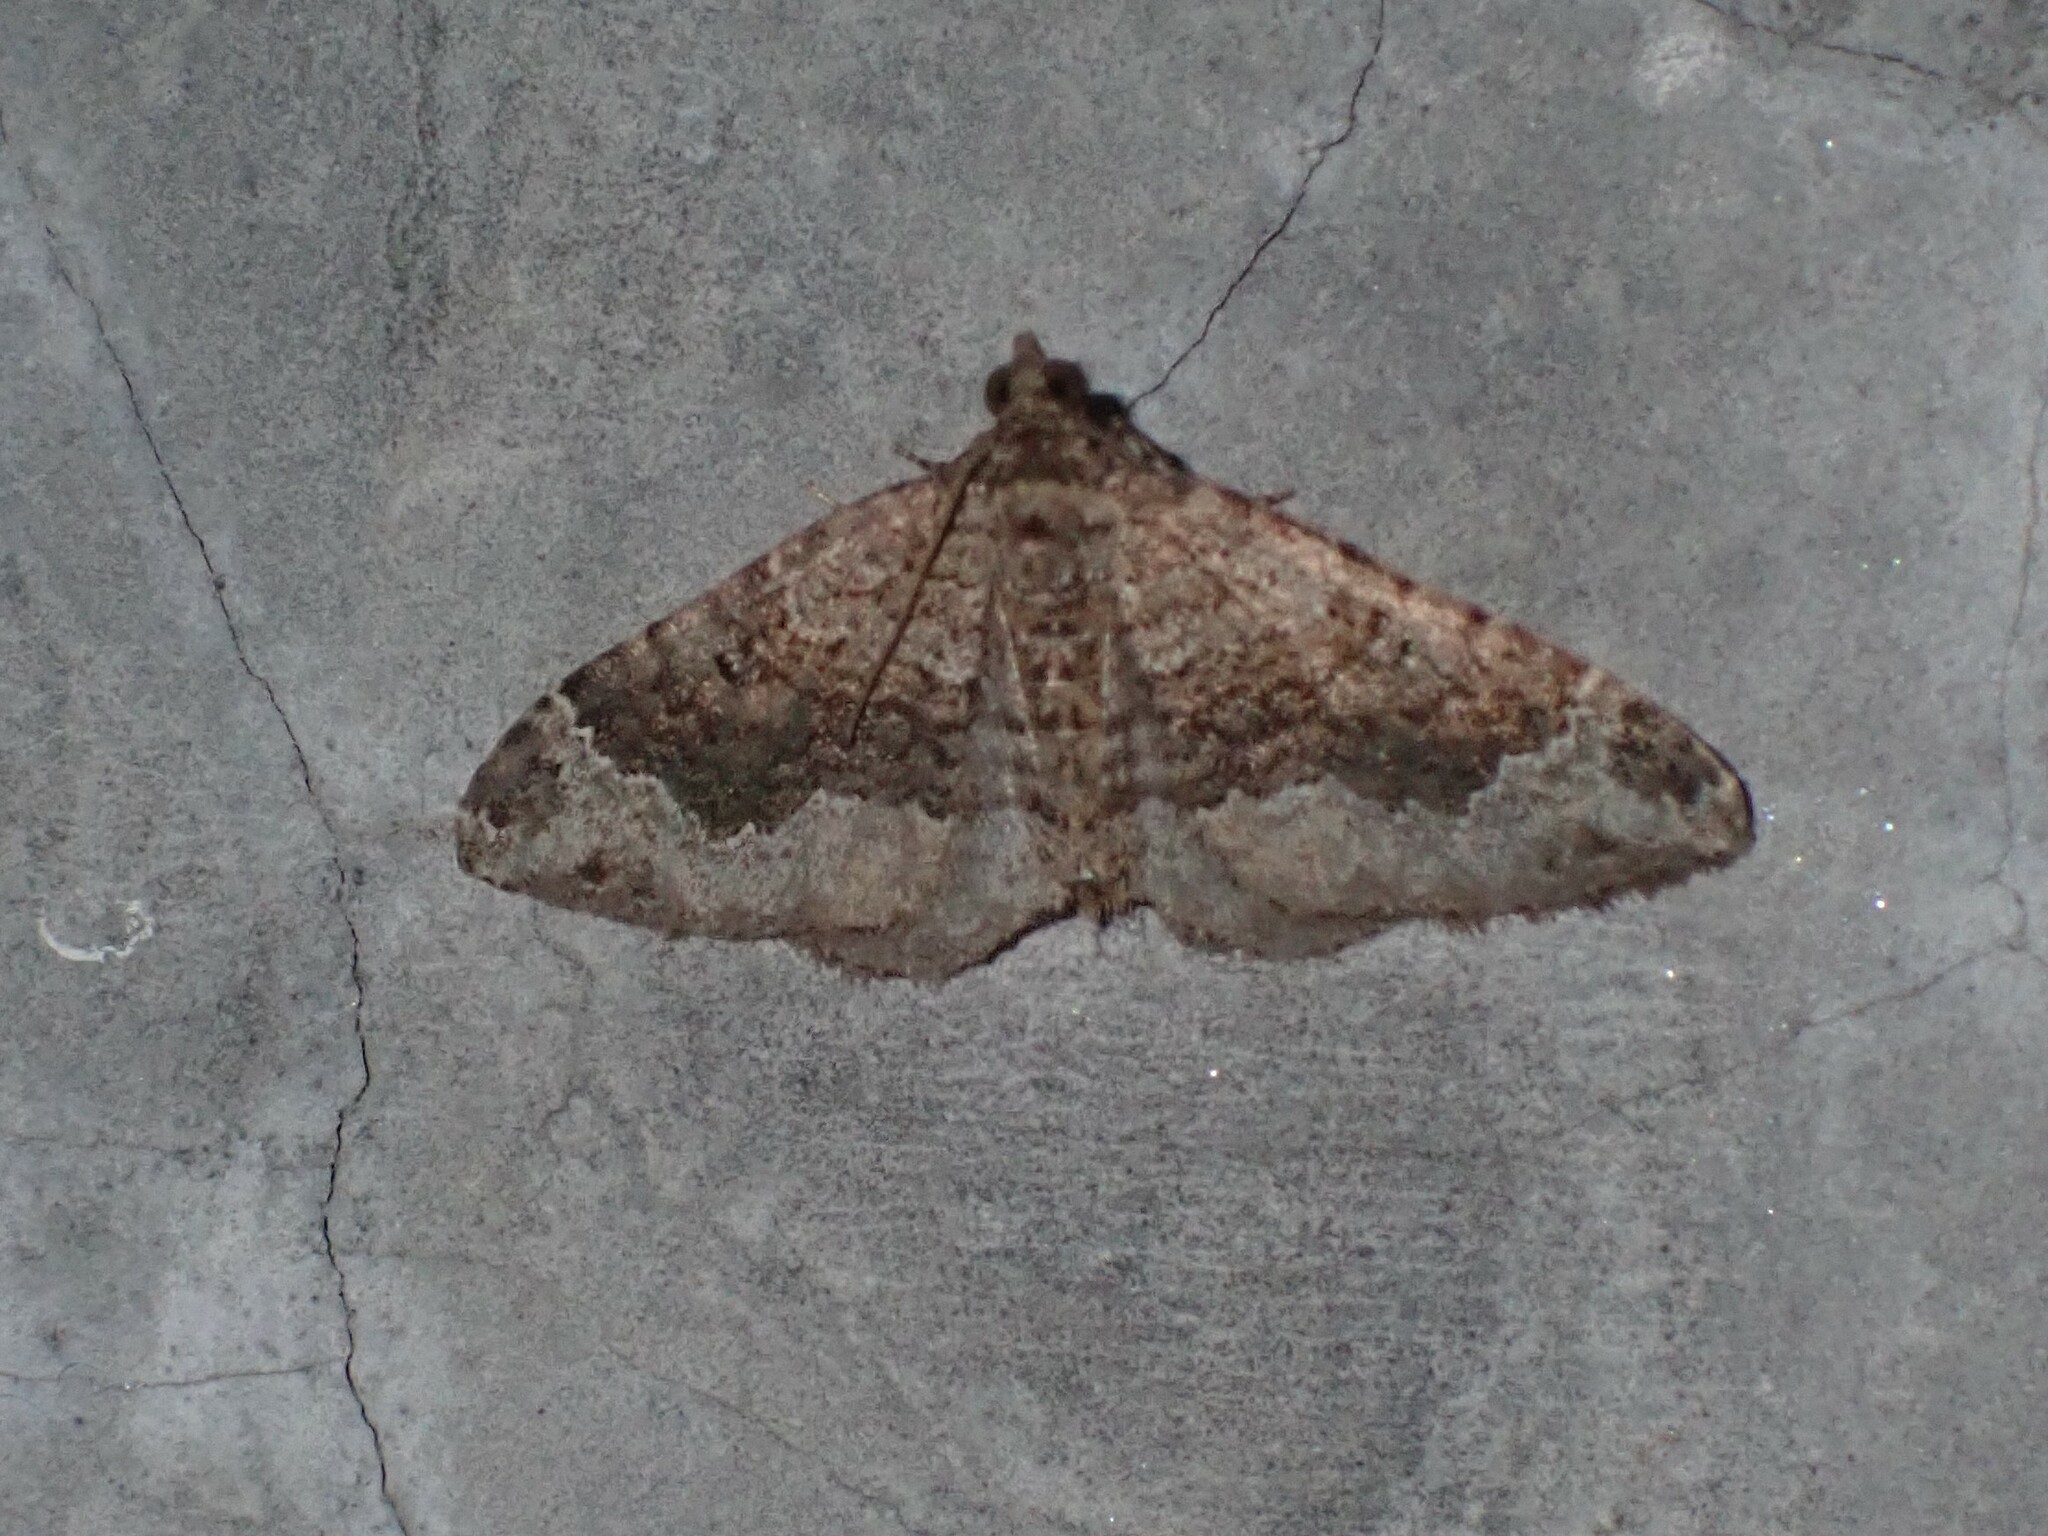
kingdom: Animalia
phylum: Arthropoda
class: Insecta
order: Lepidoptera
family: Geometridae
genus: Xanthorhoe
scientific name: Xanthorhoe saturata
